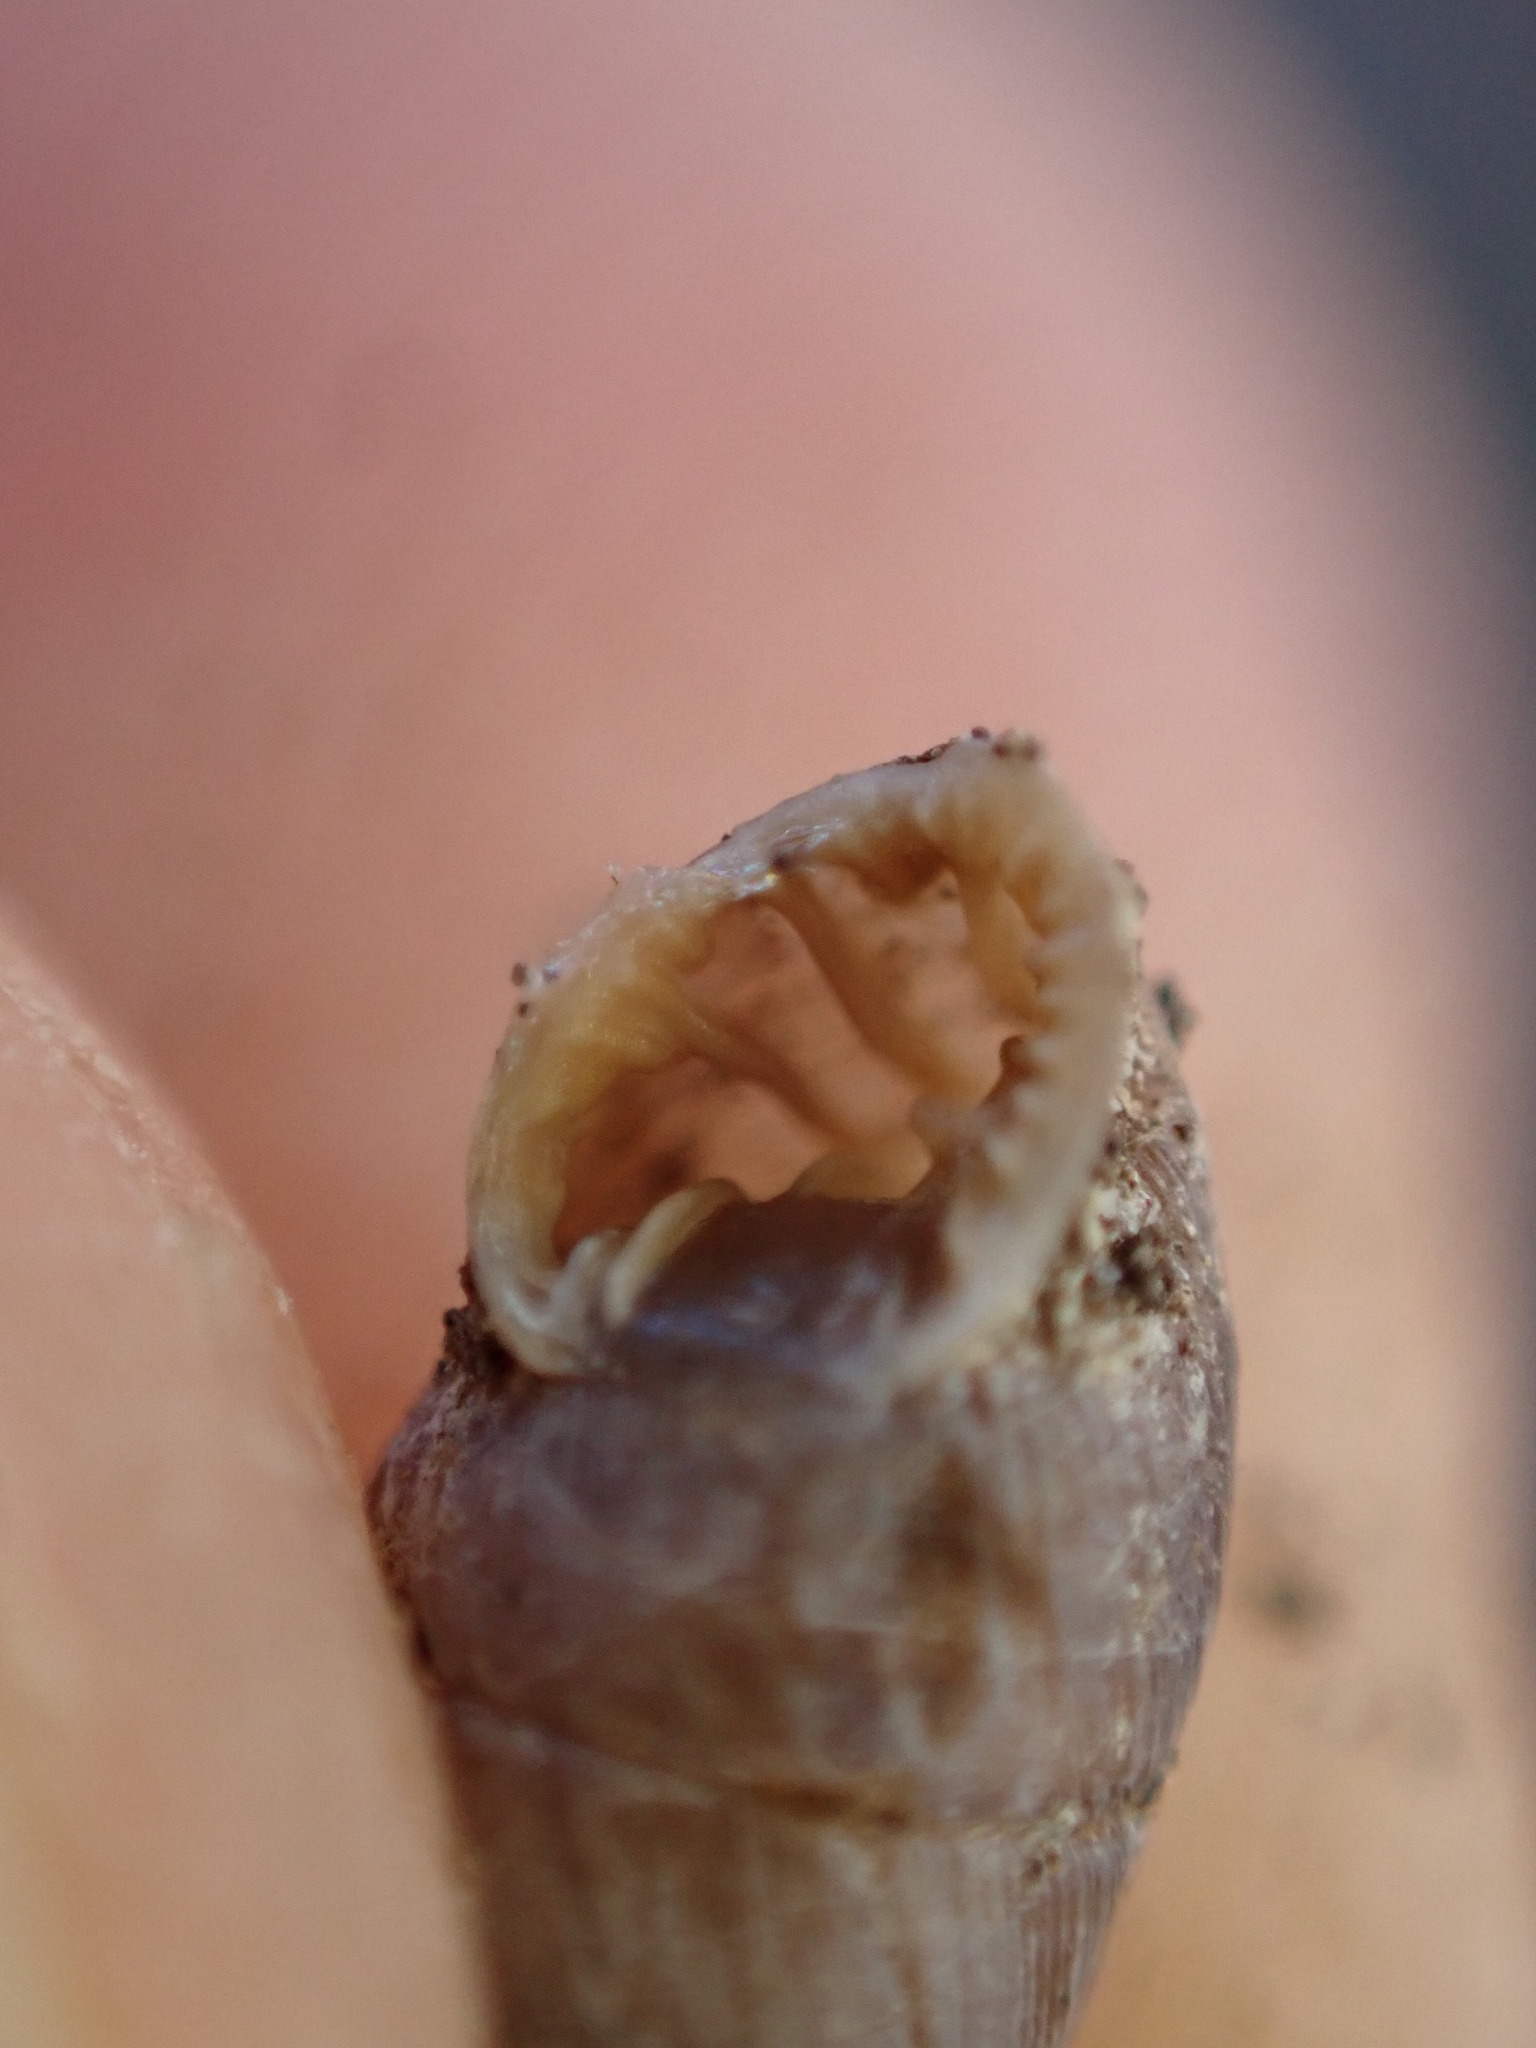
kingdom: Animalia
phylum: Mollusca
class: Gastropoda
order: Stylommatophora
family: Chondrinidae
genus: Abida
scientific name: Abida polyodon
